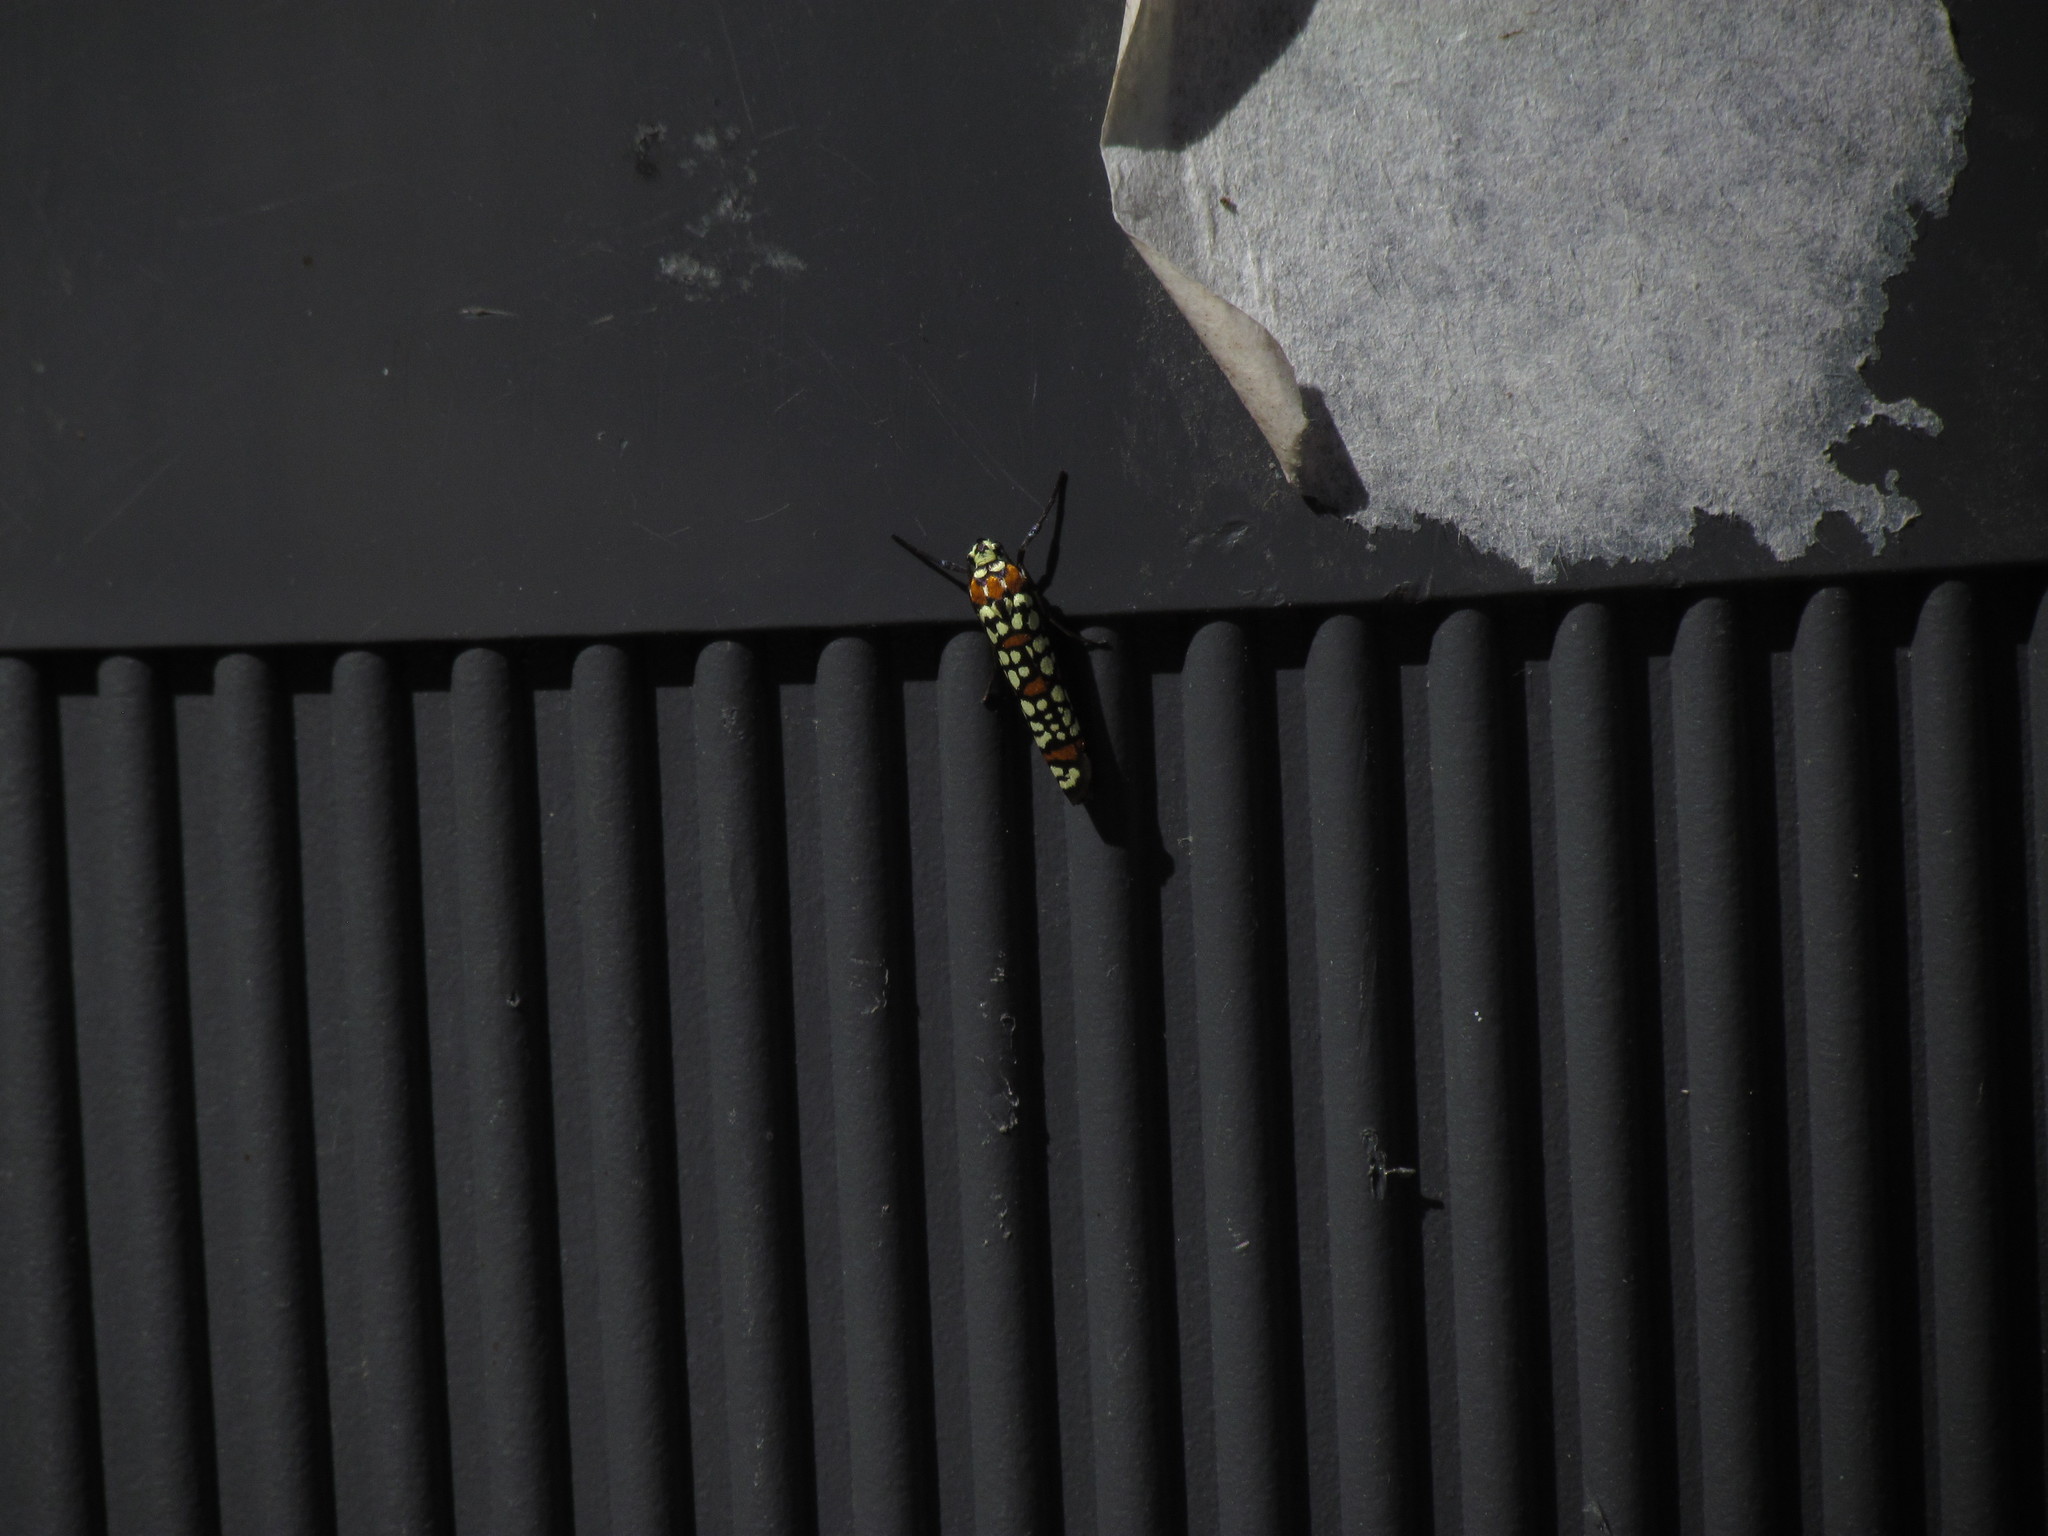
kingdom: Animalia
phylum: Arthropoda
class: Insecta
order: Lepidoptera
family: Attevidae
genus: Atteva
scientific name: Atteva punctella
